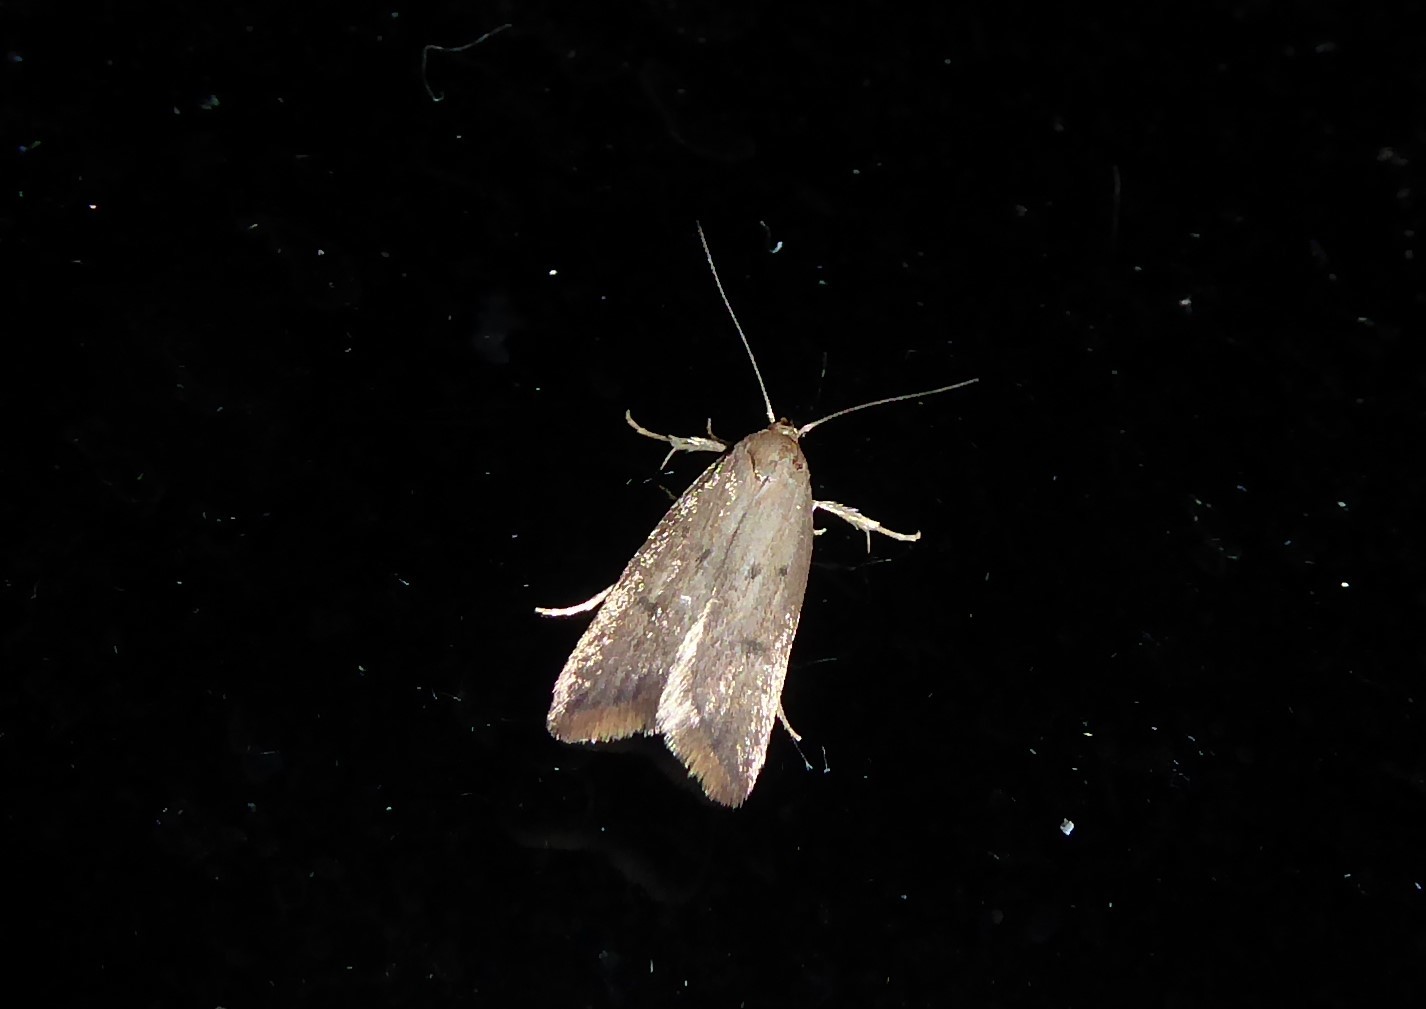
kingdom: Animalia
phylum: Arthropoda
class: Insecta
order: Lepidoptera
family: Oecophoridae
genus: Tachystola
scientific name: Tachystola acroxantha
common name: Ruddy streak
